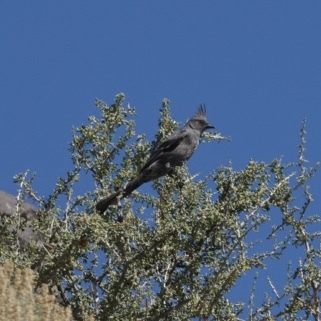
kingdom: Animalia
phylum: Chordata
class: Aves
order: Passeriformes
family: Ptilogonatidae
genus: Phainopepla
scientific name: Phainopepla nitens
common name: Phainopepla
